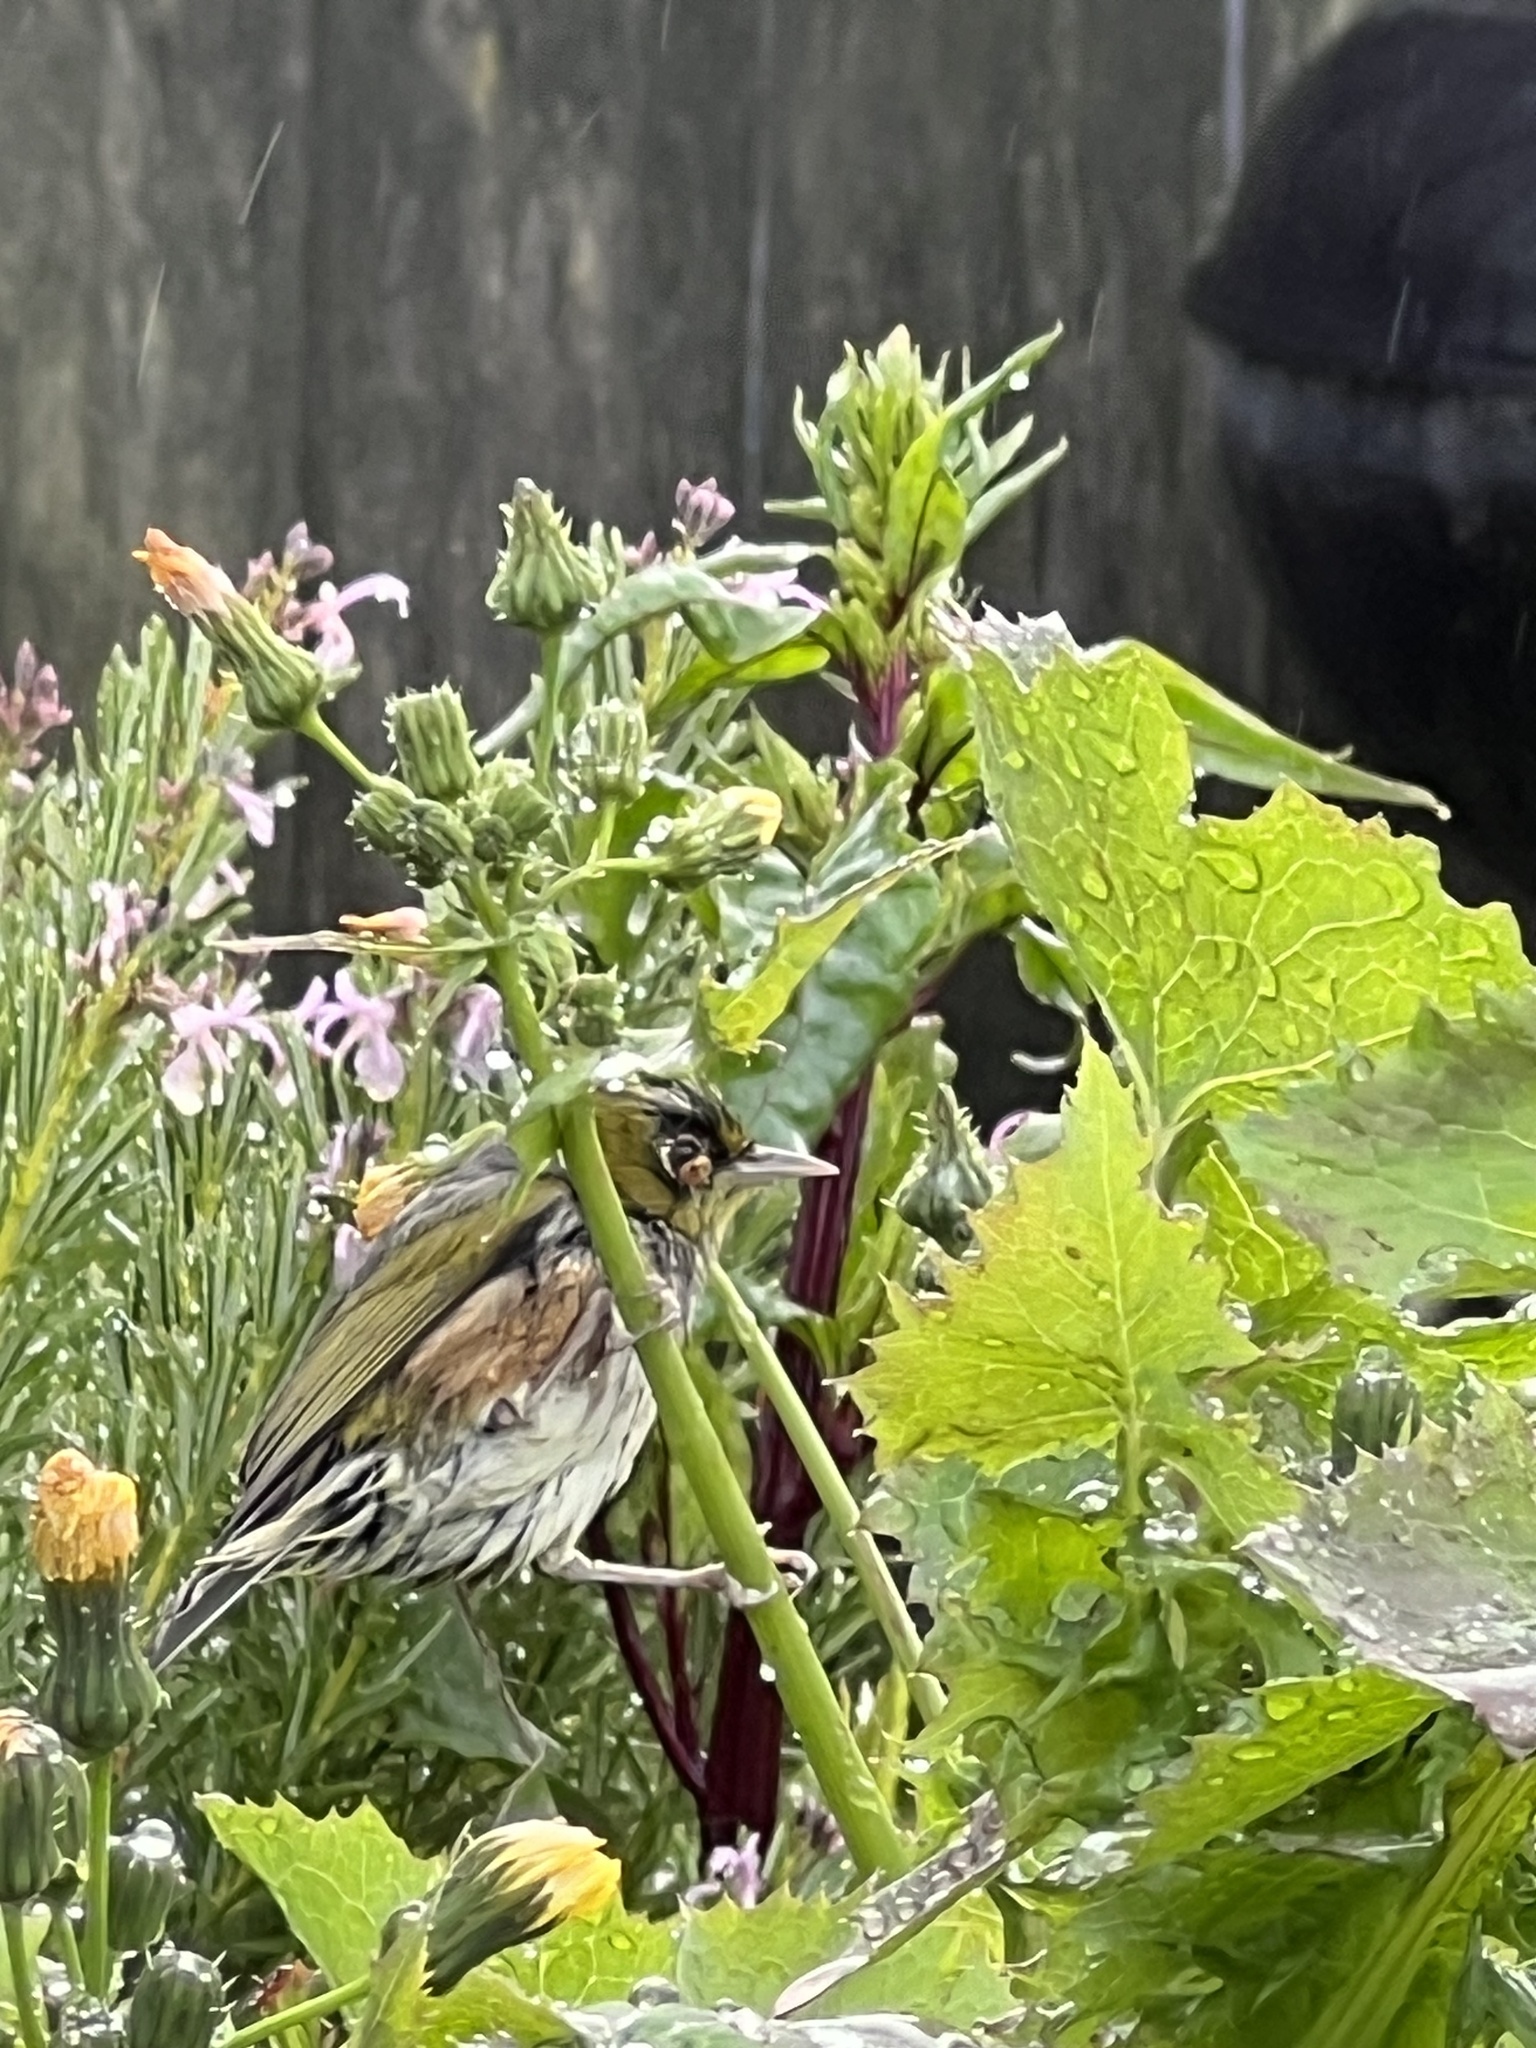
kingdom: Animalia
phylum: Chordata
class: Aves
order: Passeriformes
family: Zosteropidae
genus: Zosterops
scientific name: Zosterops lateralis
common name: Silvereye
